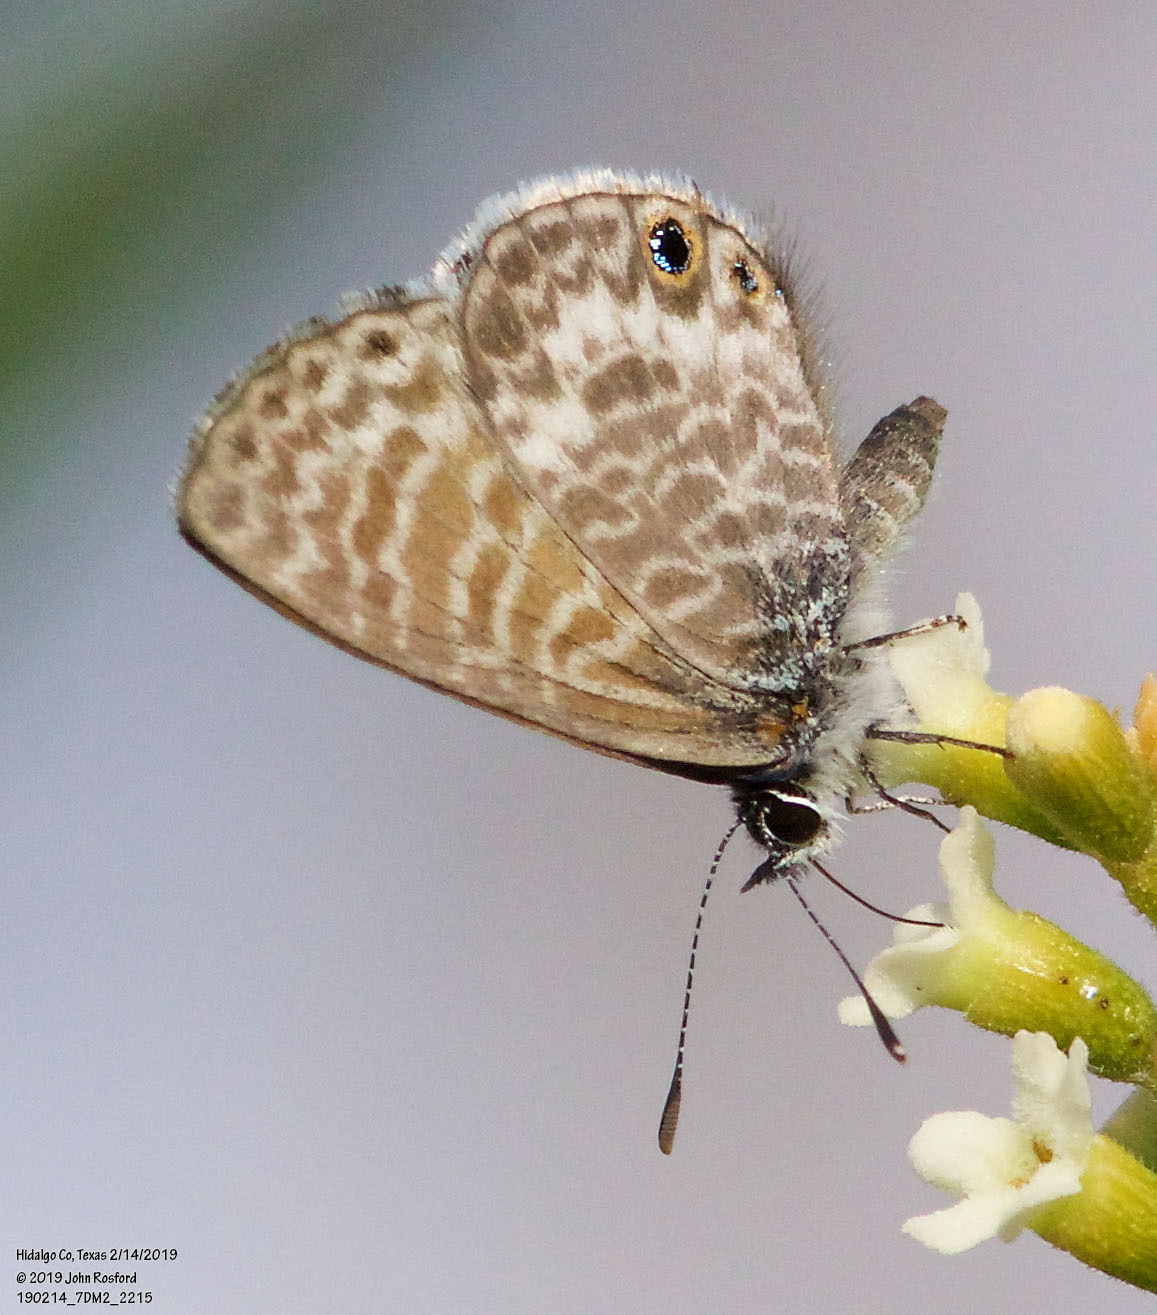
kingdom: Animalia
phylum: Arthropoda
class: Insecta
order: Lepidoptera
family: Lycaenidae
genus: Leptotes
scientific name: Leptotes marina
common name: Marine blue
